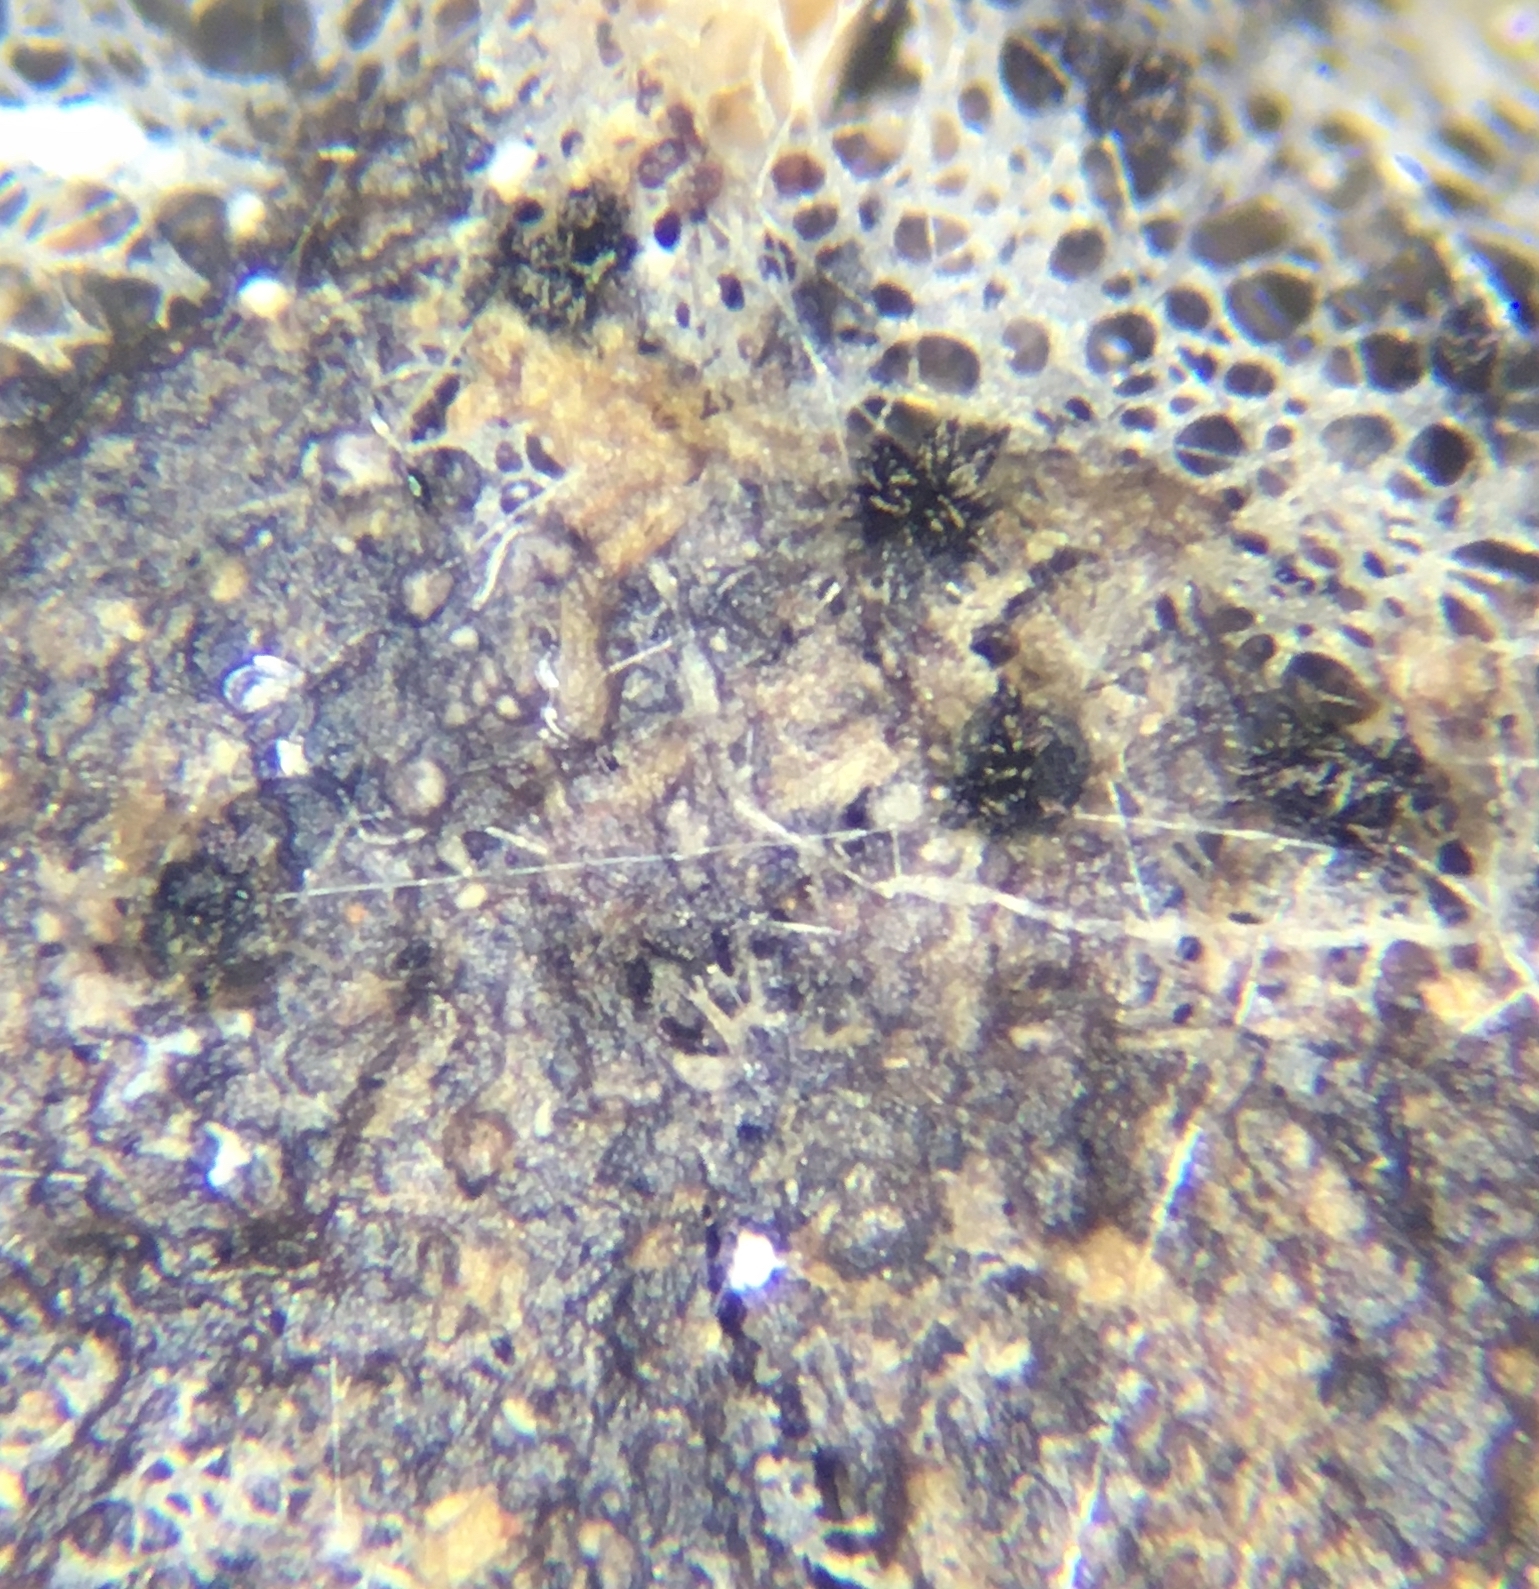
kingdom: Fungi
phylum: Ascomycota
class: Dothideomycetes
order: Pleosporales
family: Sporormiaceae
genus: Sporormiella
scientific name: Sporormiella albolanata
